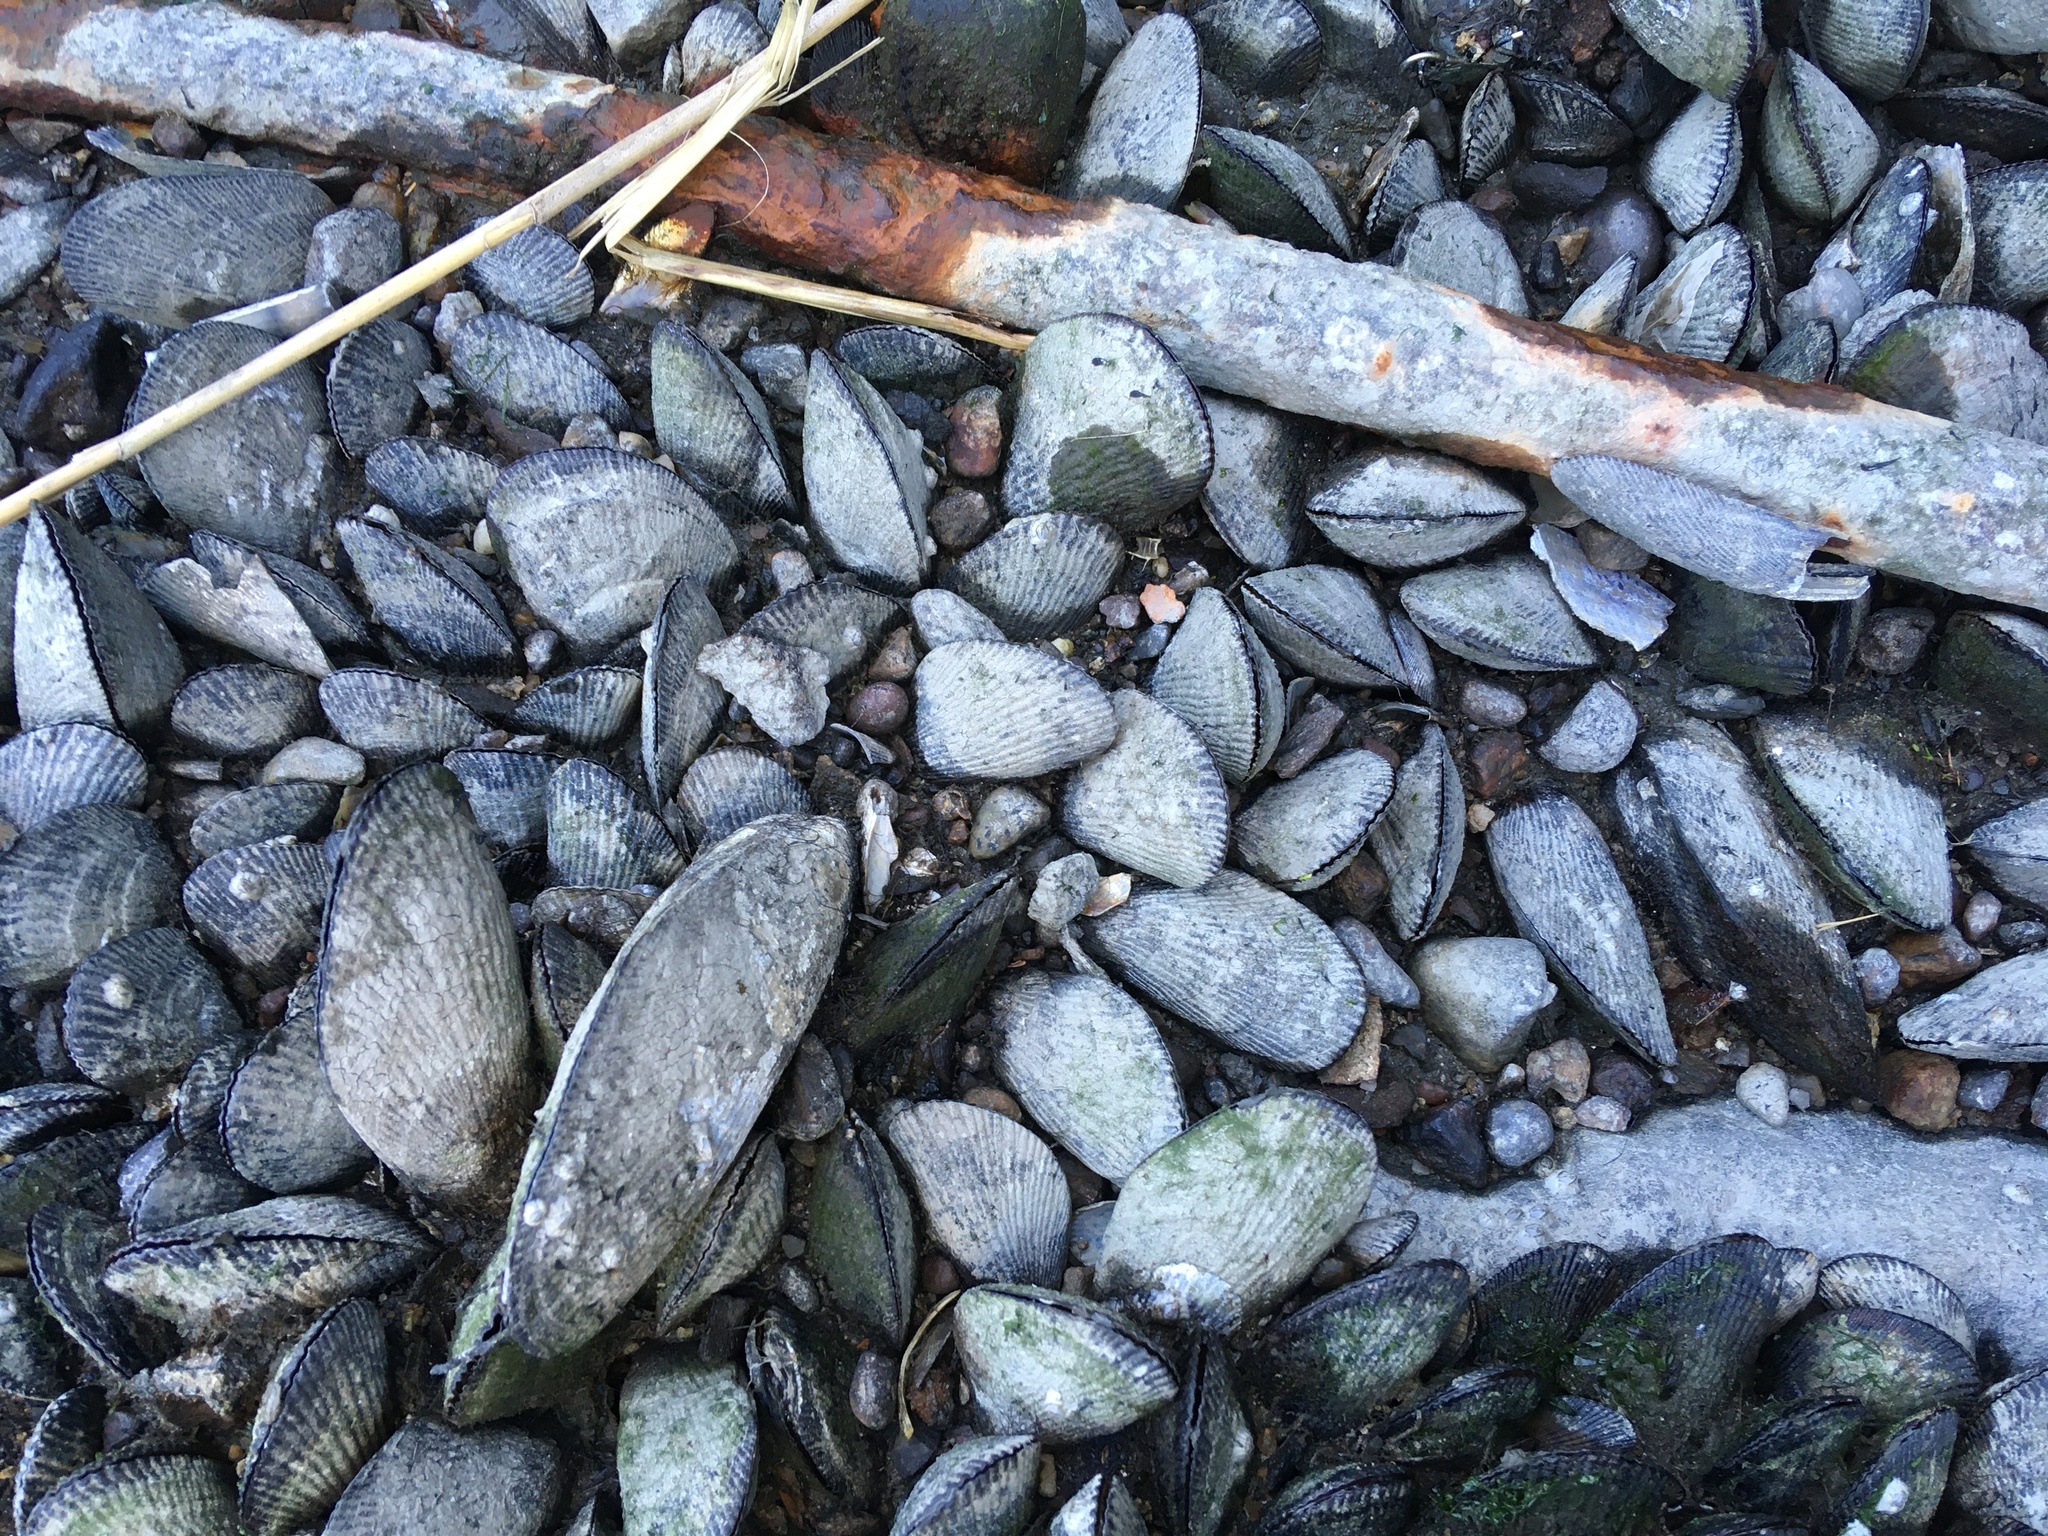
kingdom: Animalia
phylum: Mollusca
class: Bivalvia
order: Mytilida
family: Mytilidae
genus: Geukensia
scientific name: Geukensia demissa
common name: Ribbed mussel
